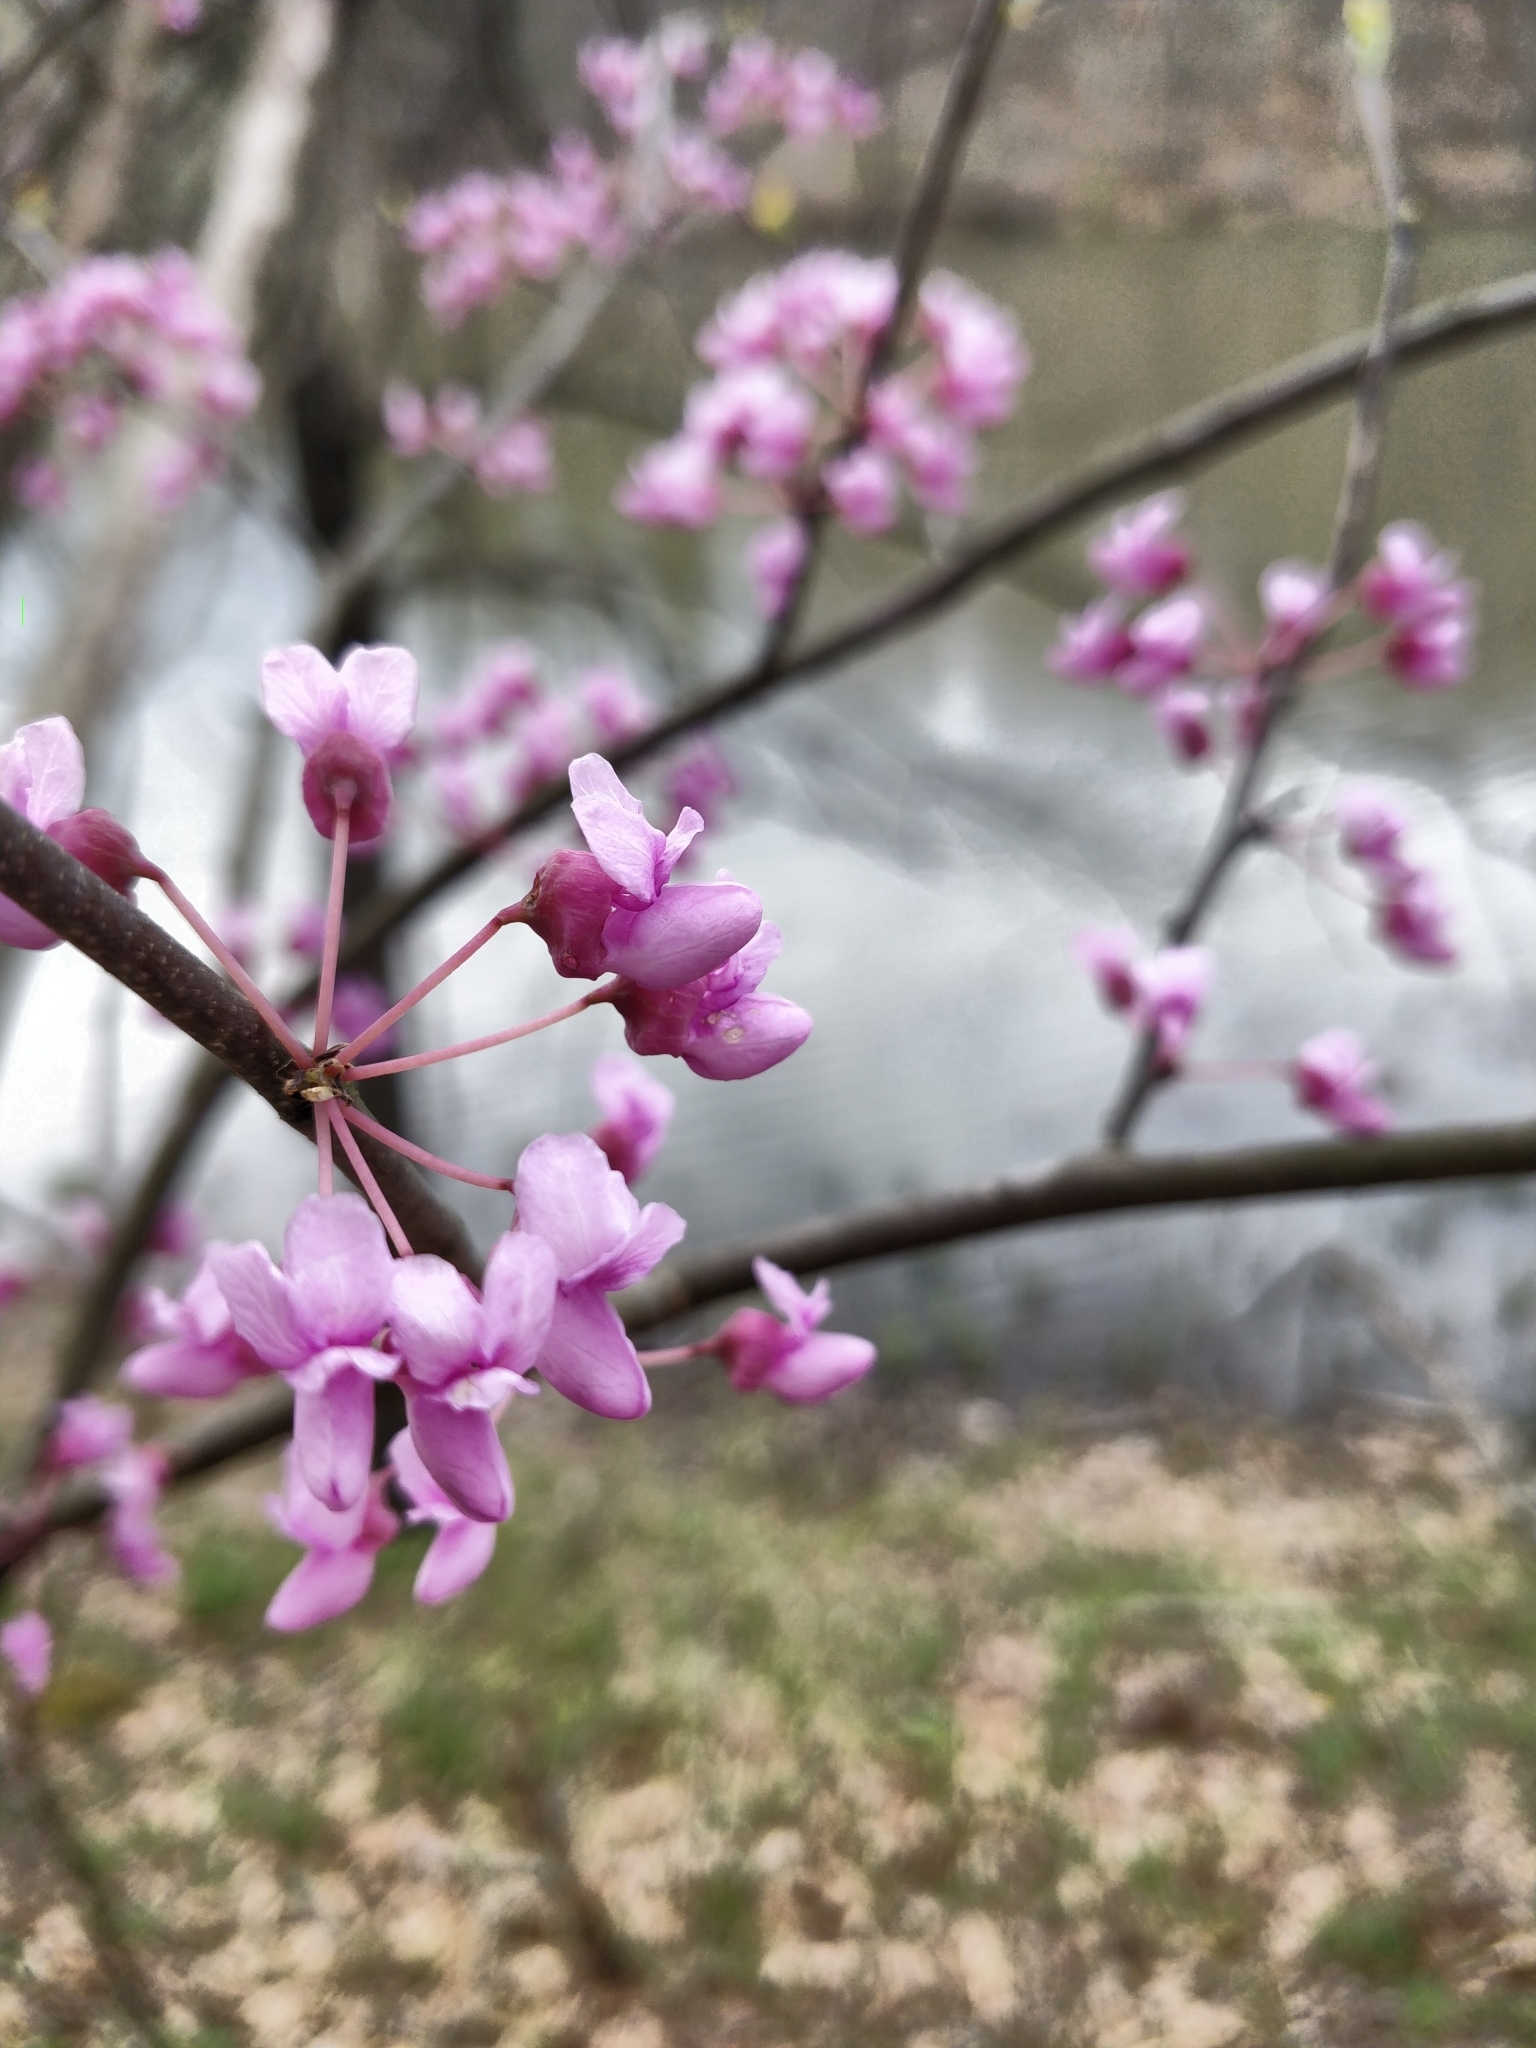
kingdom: Plantae
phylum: Tracheophyta
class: Magnoliopsida
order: Fabales
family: Fabaceae
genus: Cercis
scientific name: Cercis canadensis
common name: Eastern redbud
